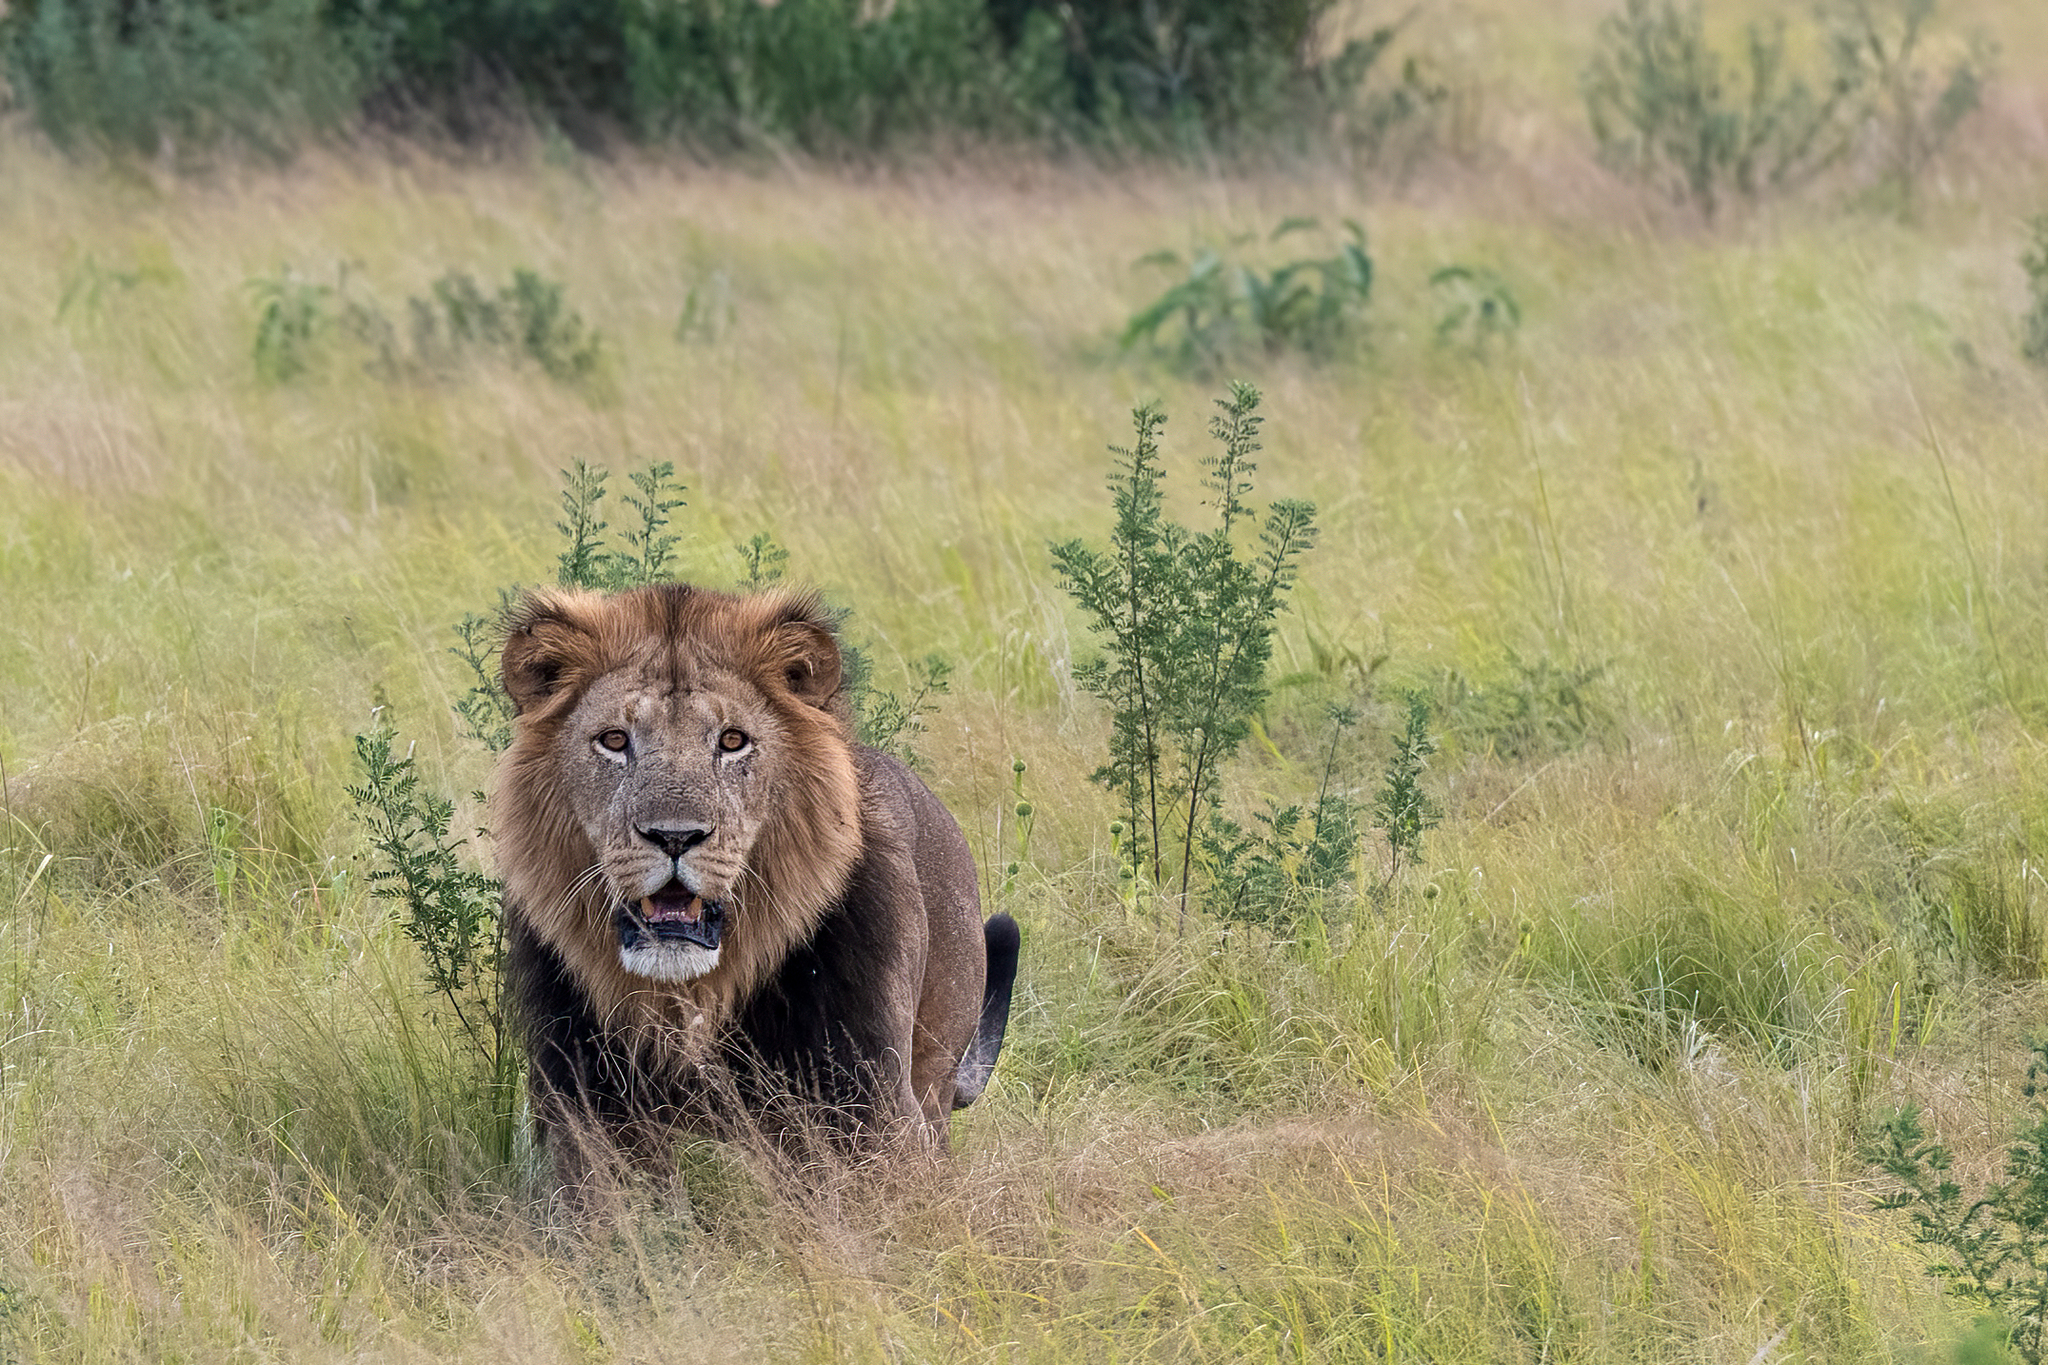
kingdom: Animalia
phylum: Chordata
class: Mammalia
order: Carnivora
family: Felidae
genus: Panthera
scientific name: Panthera leo
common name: Lion
